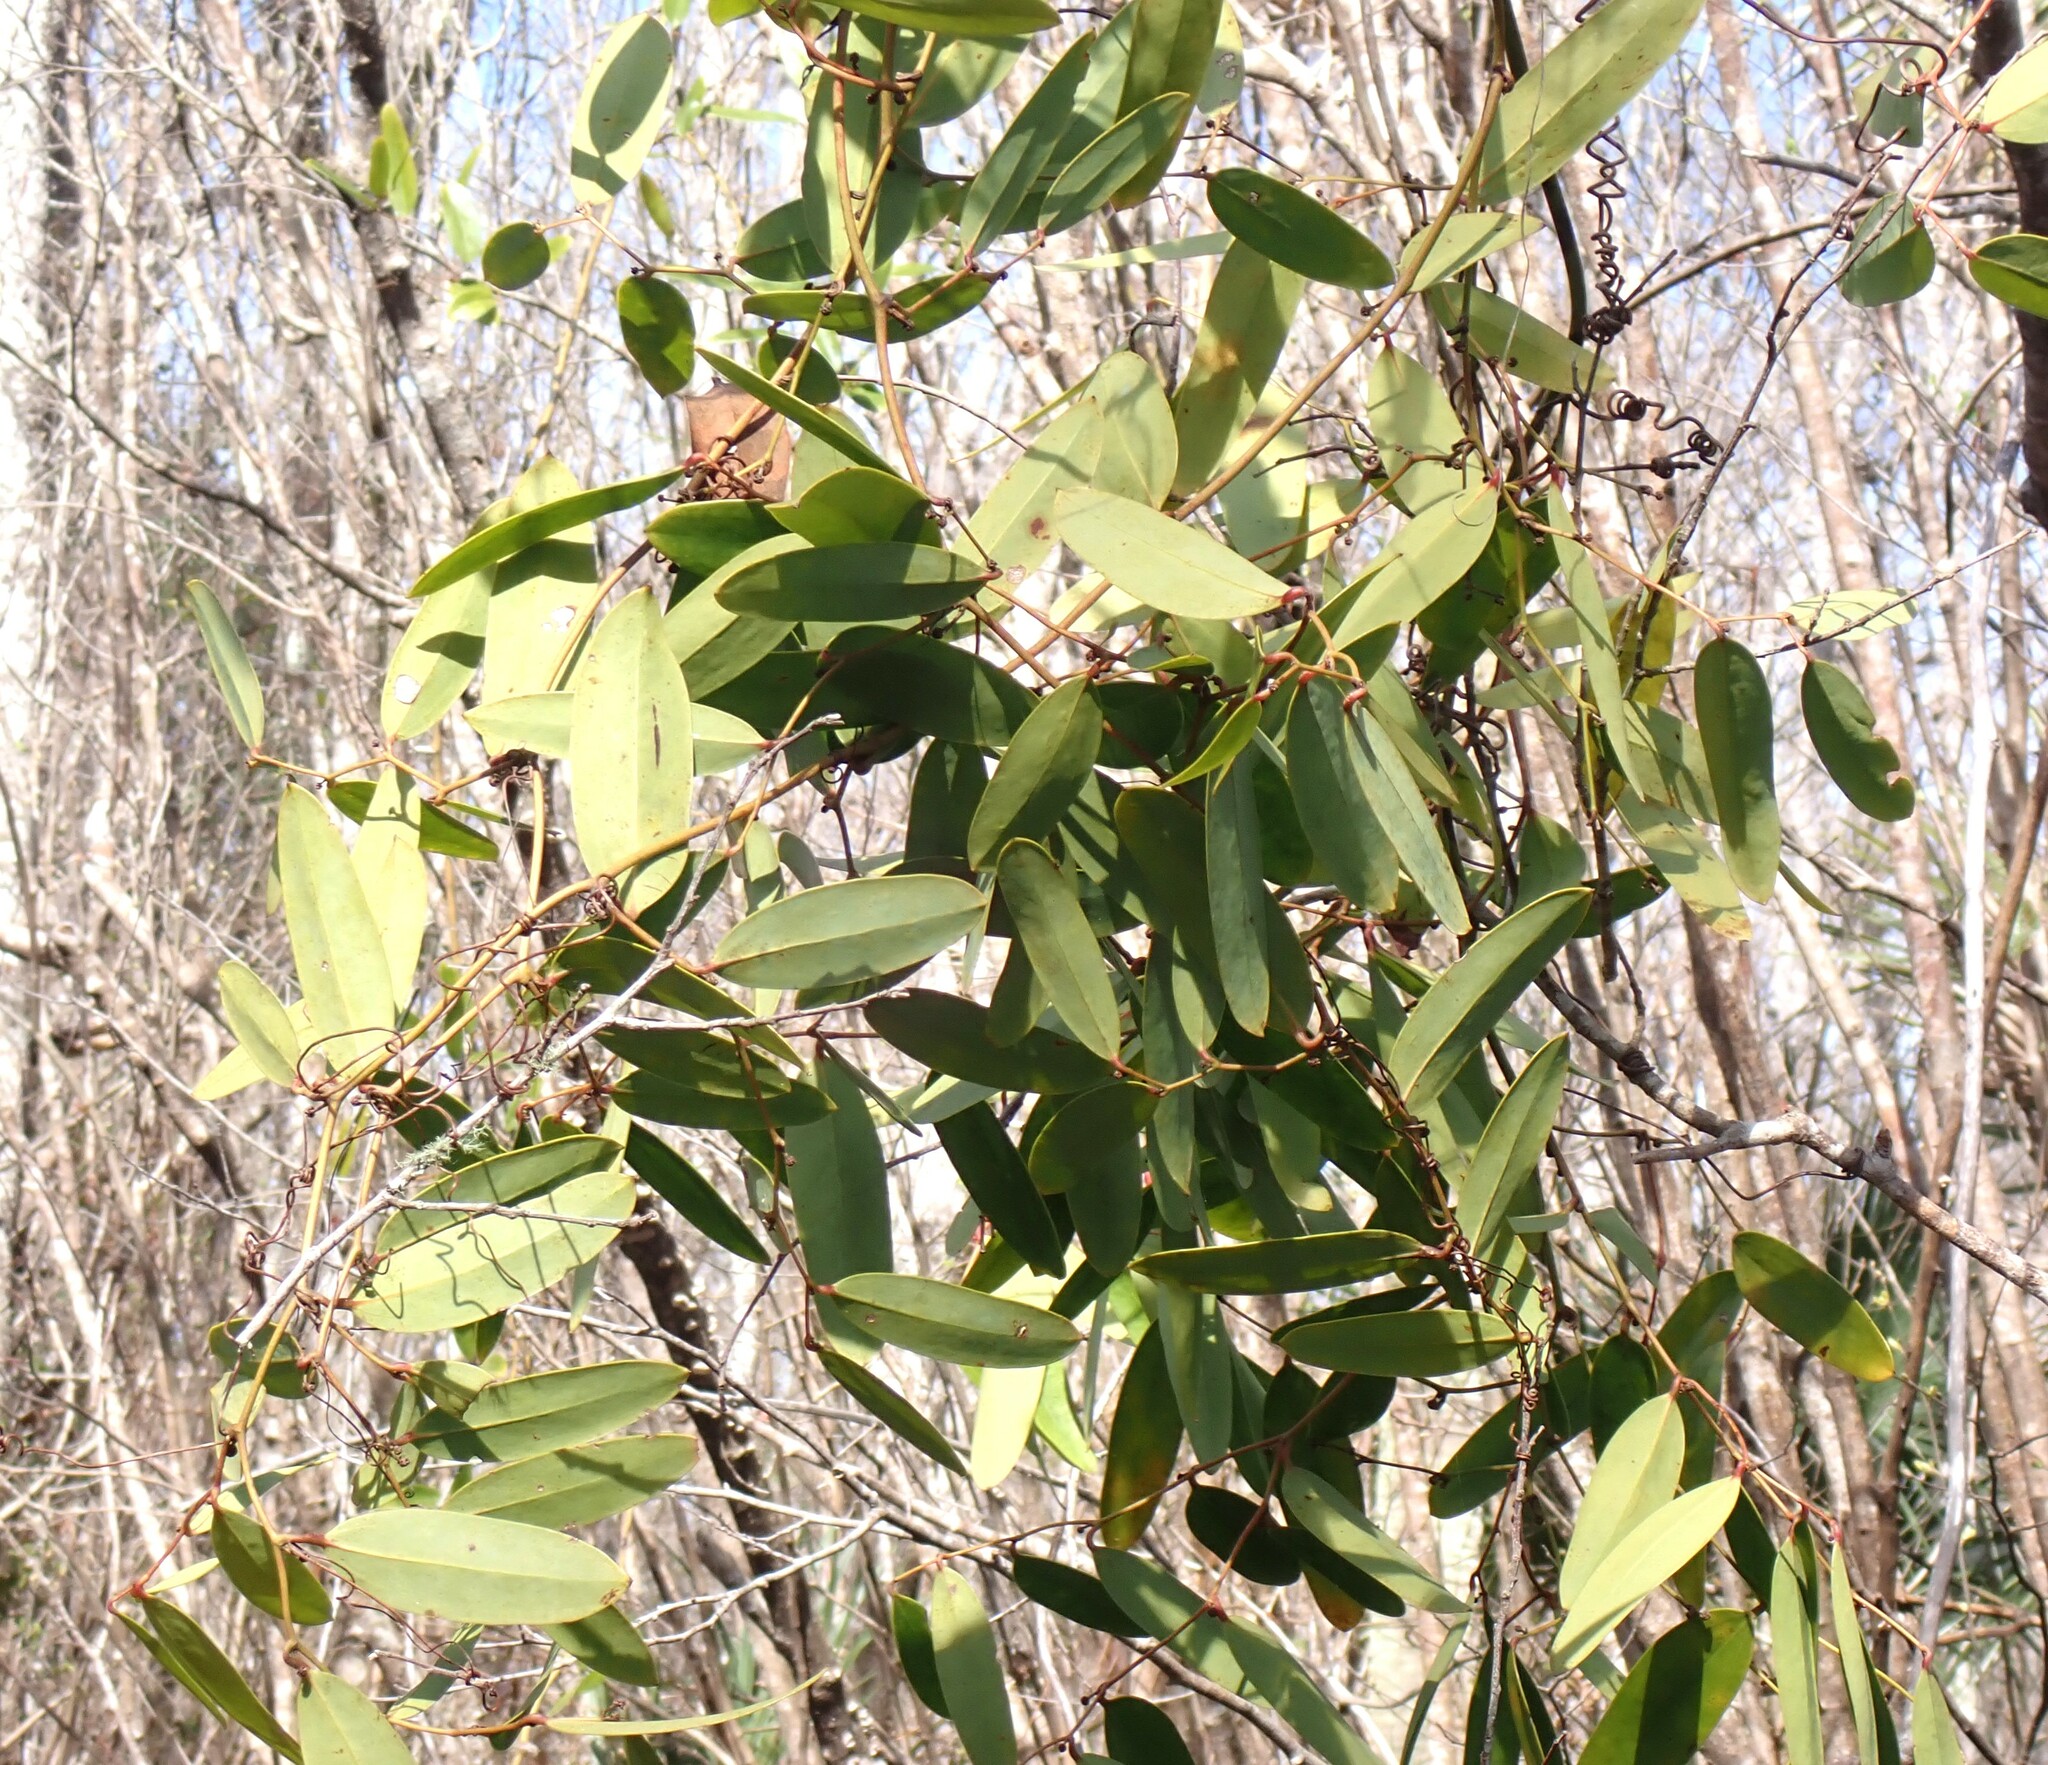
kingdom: Plantae
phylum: Tracheophyta
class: Liliopsida
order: Liliales
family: Smilacaceae
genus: Smilax
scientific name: Smilax laurifolia
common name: Bamboovine
